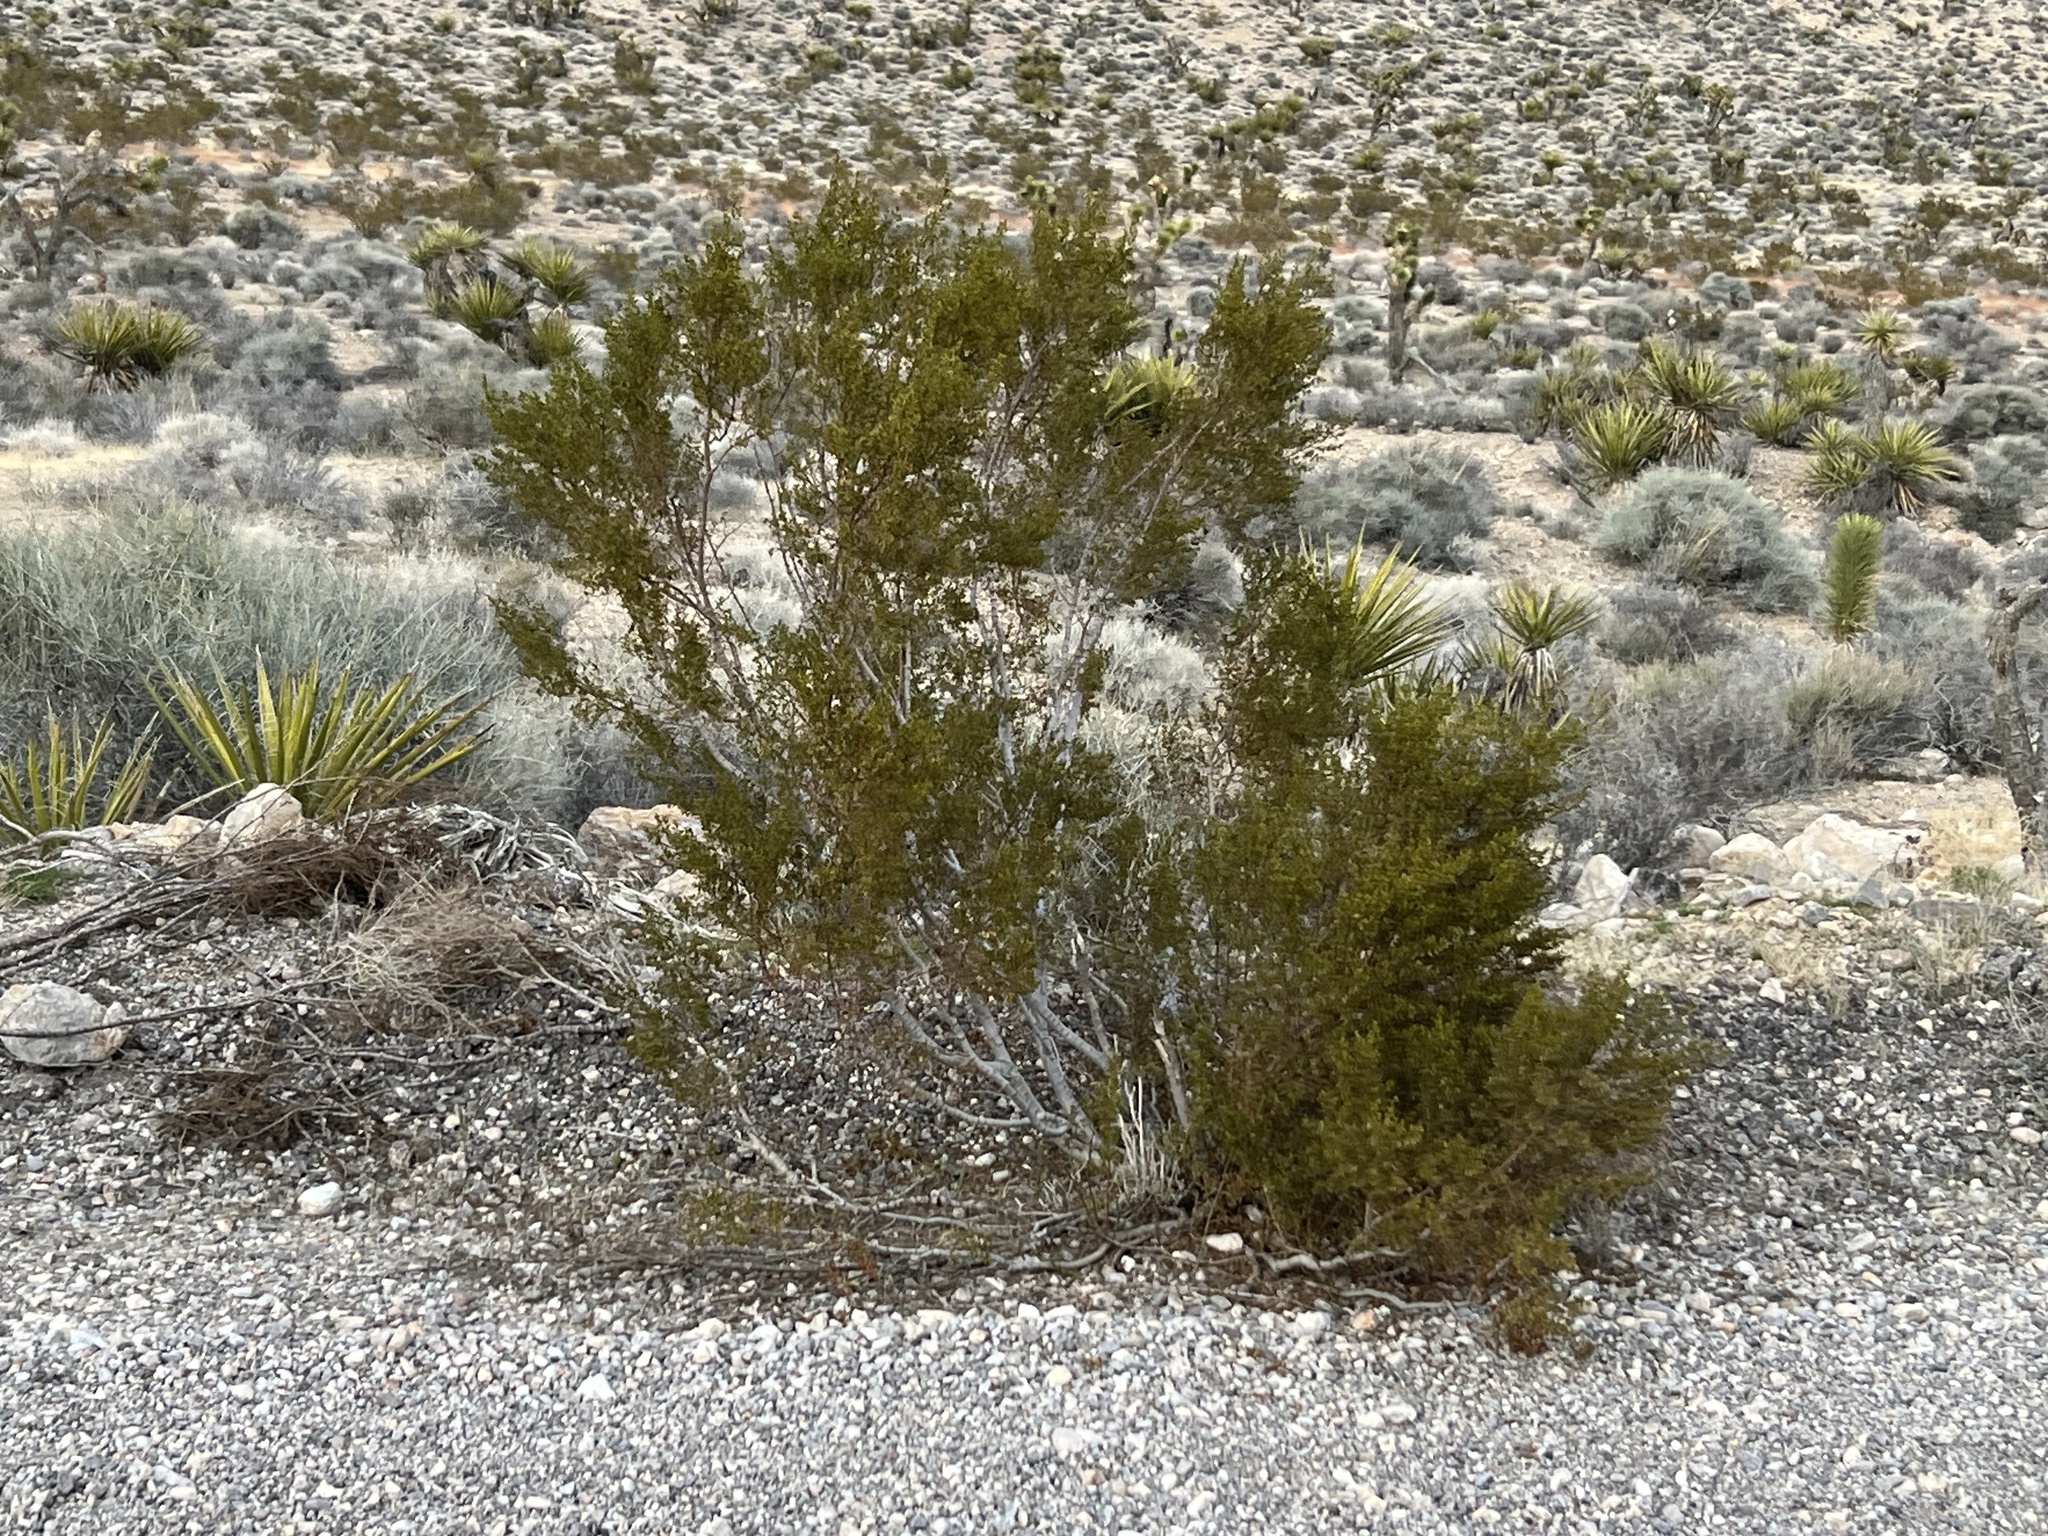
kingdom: Plantae
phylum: Tracheophyta
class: Magnoliopsida
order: Zygophyllales
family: Zygophyllaceae
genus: Larrea
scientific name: Larrea tridentata
